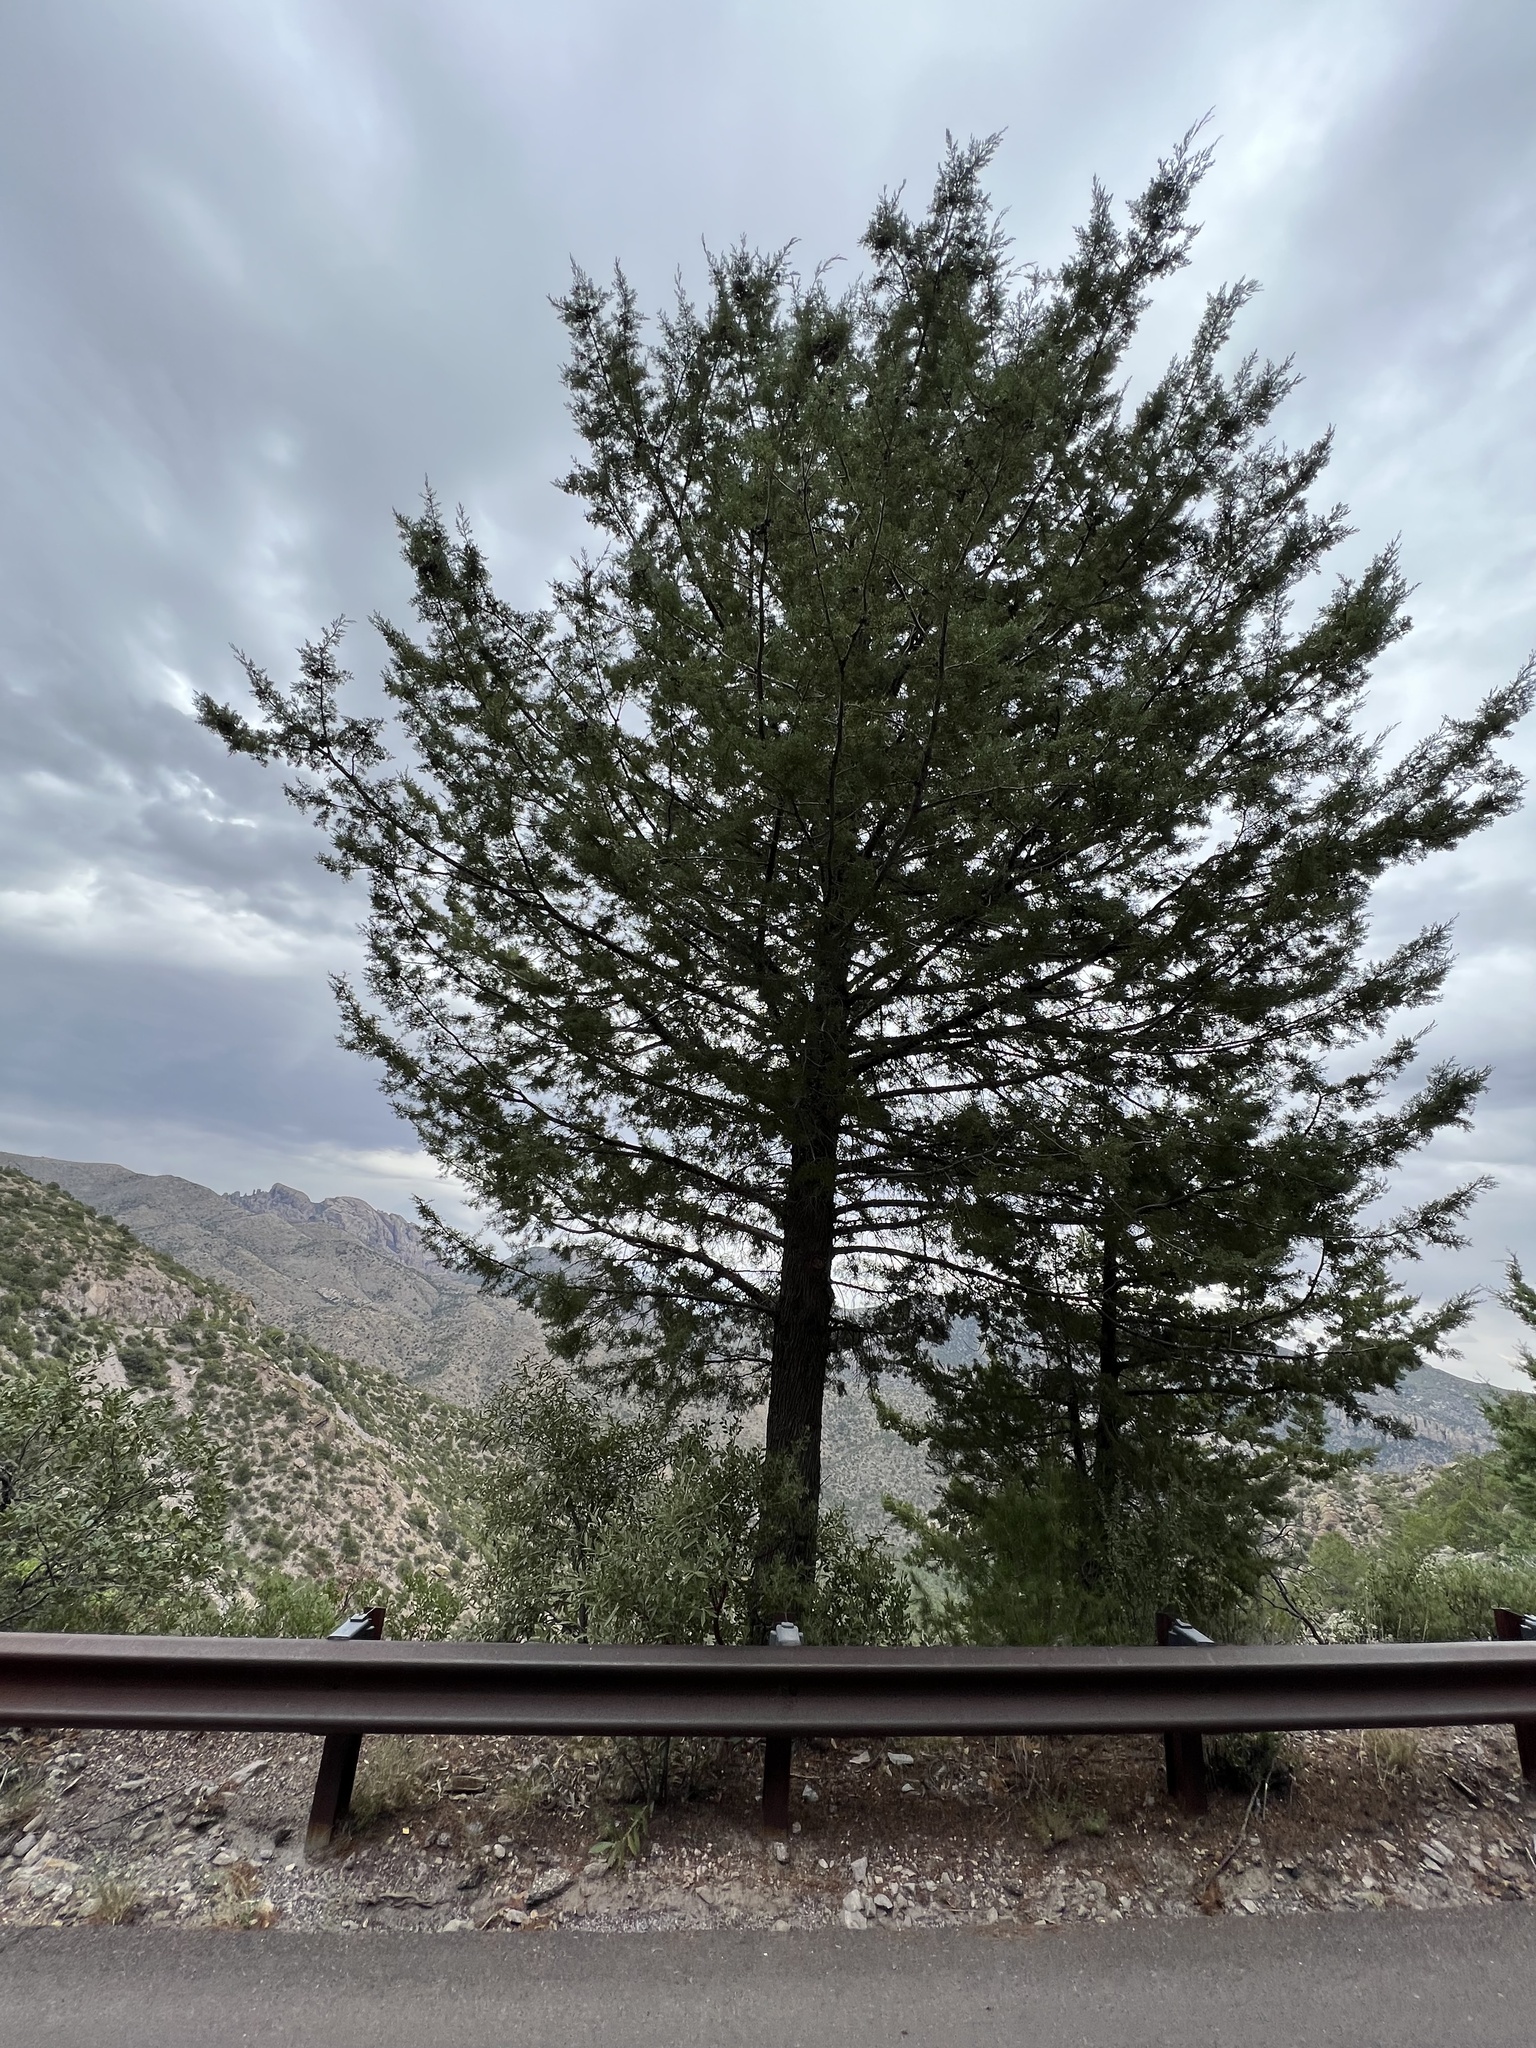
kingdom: Plantae
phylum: Tracheophyta
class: Pinopsida
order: Pinales
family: Cupressaceae
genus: Cupressus
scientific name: Cupressus arizonica
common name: Arizona cypress
